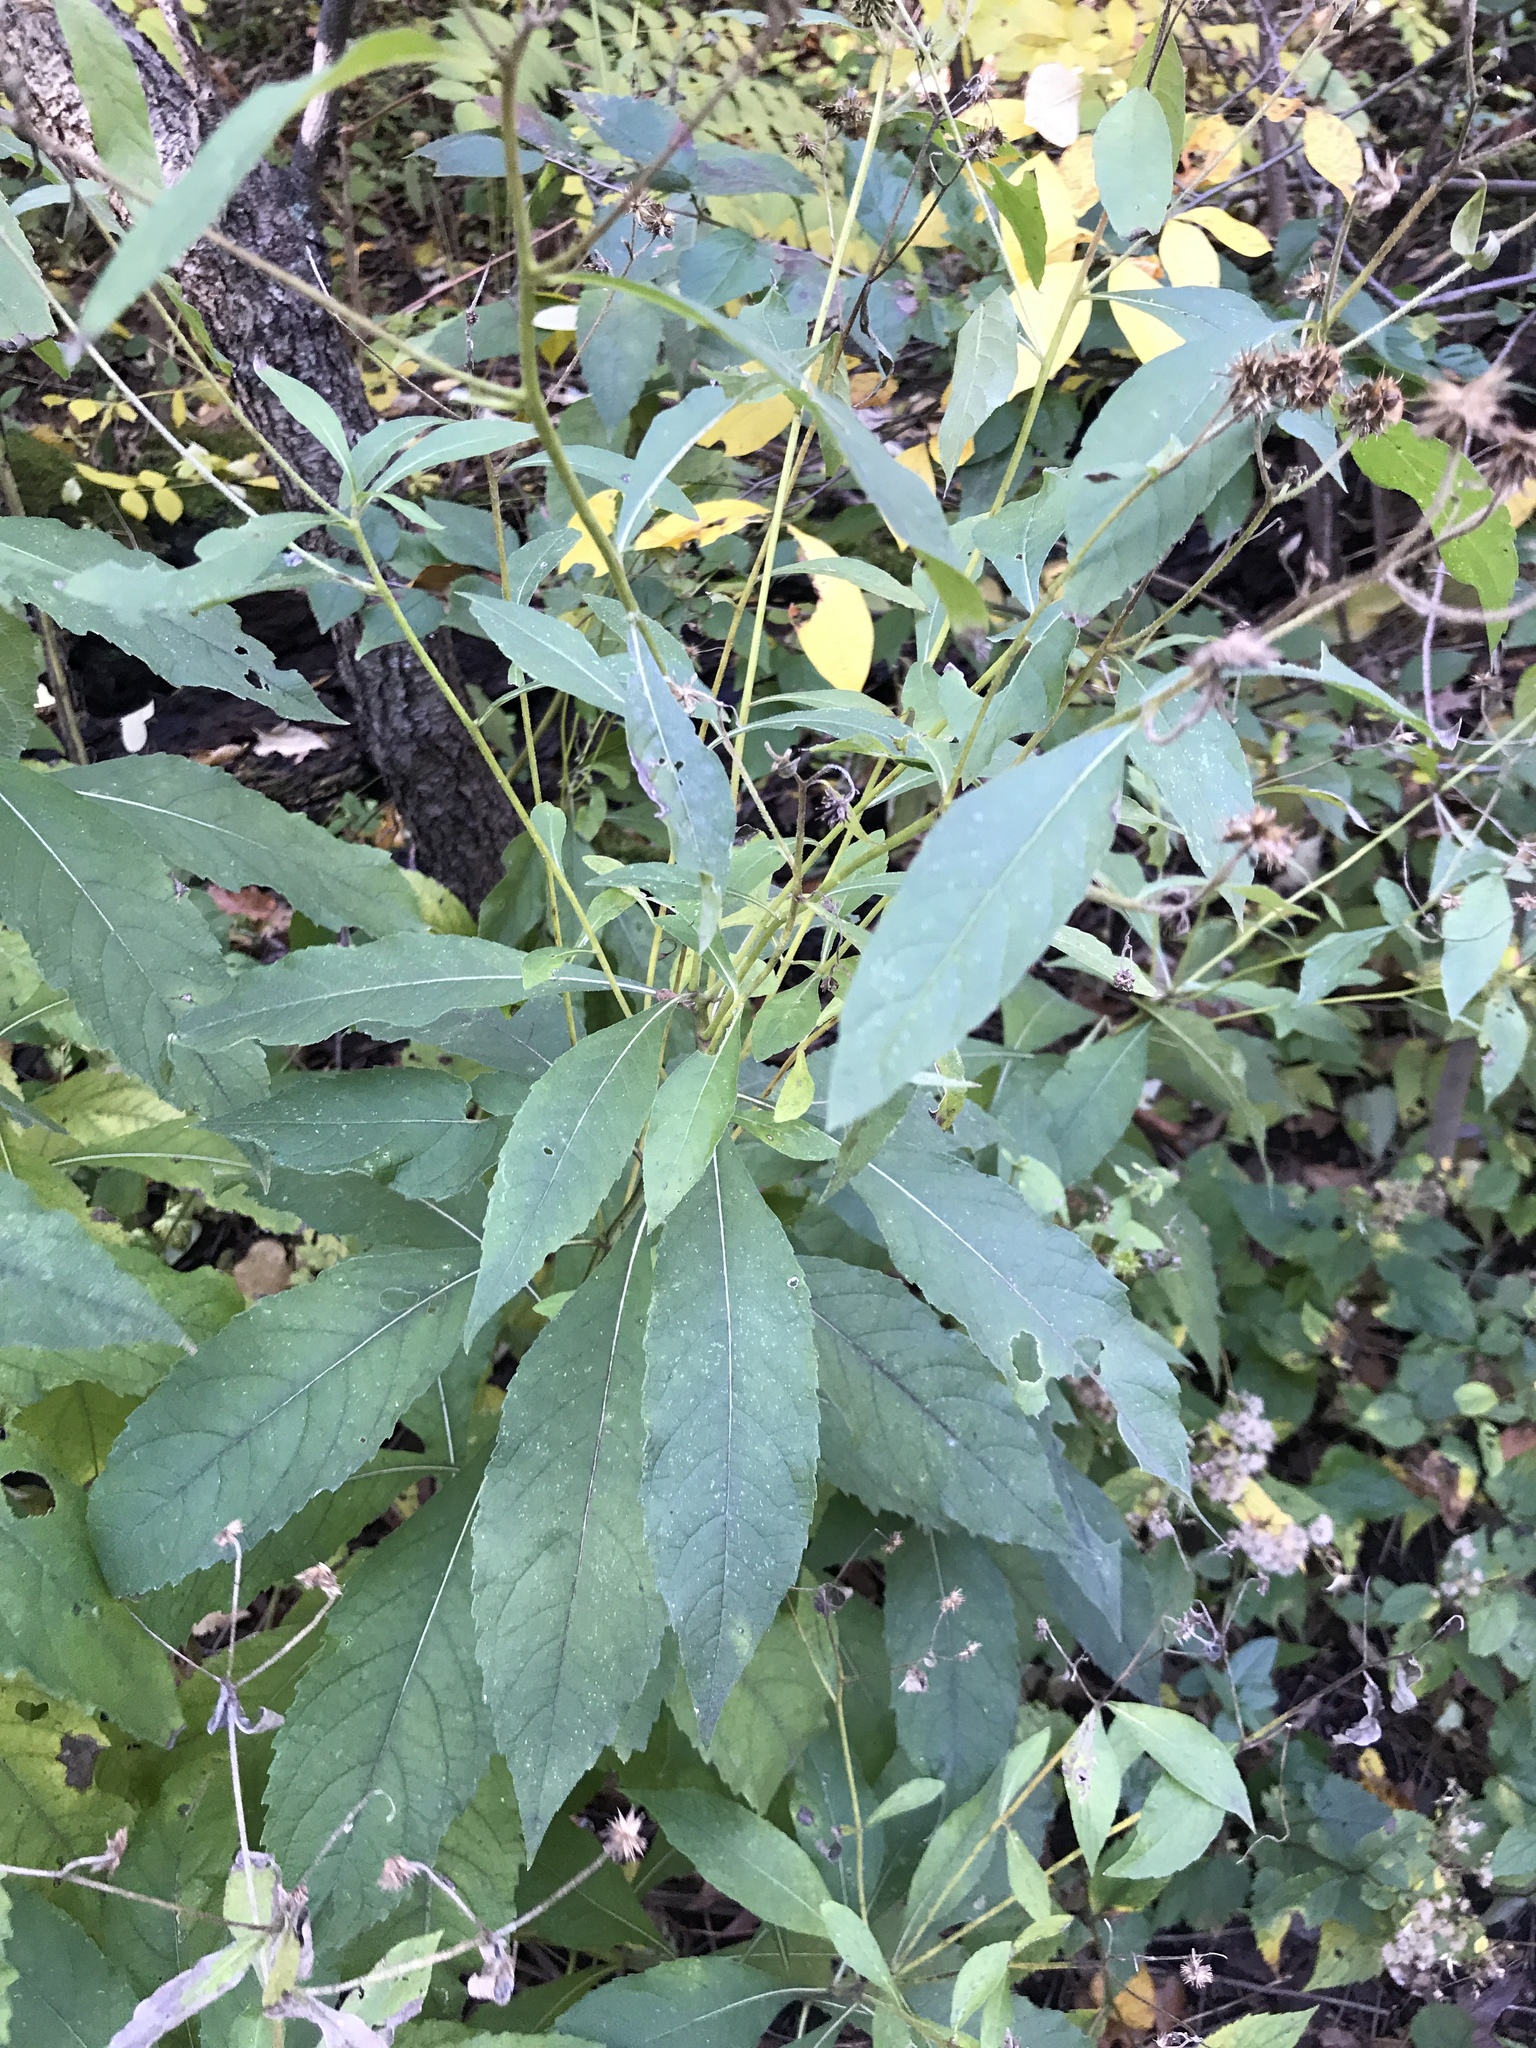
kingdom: Plantae
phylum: Tracheophyta
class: Magnoliopsida
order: Asterales
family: Asteraceae
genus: Verbesina
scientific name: Verbesina alternifolia
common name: Wingstem
